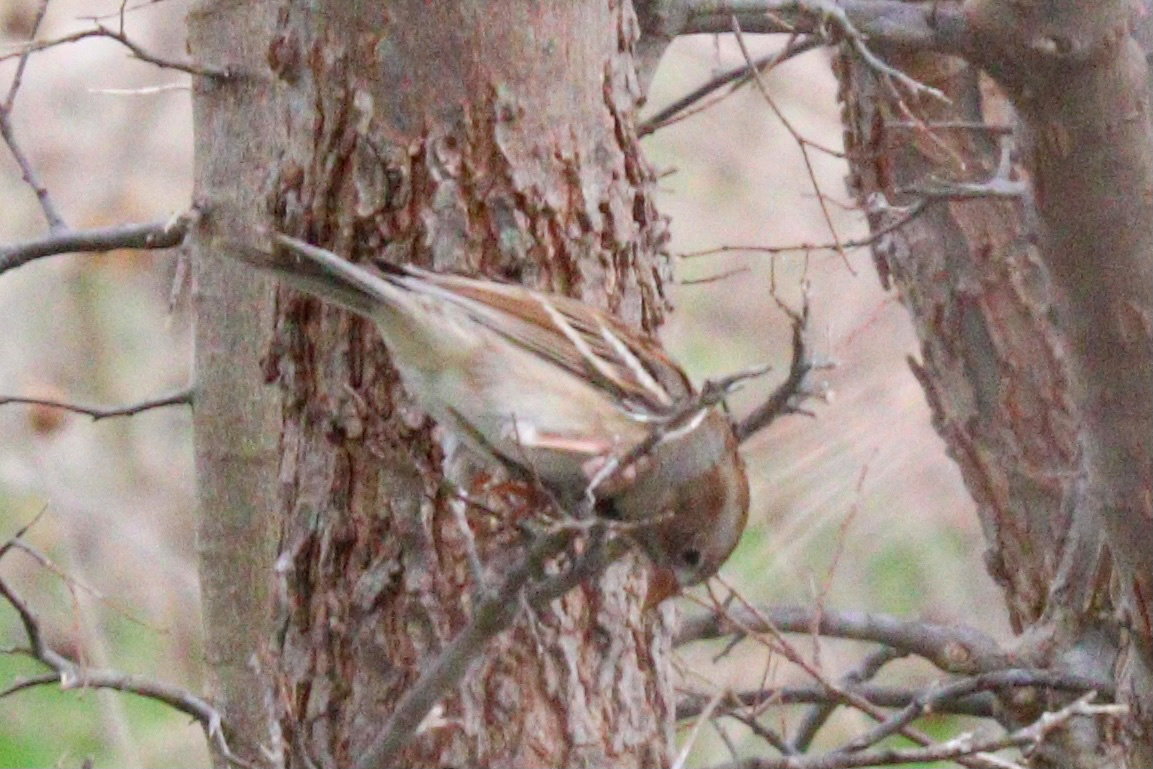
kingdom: Animalia
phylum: Chordata
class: Aves
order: Passeriformes
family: Passerellidae
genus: Spizella
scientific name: Spizella pusilla
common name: Field sparrow
